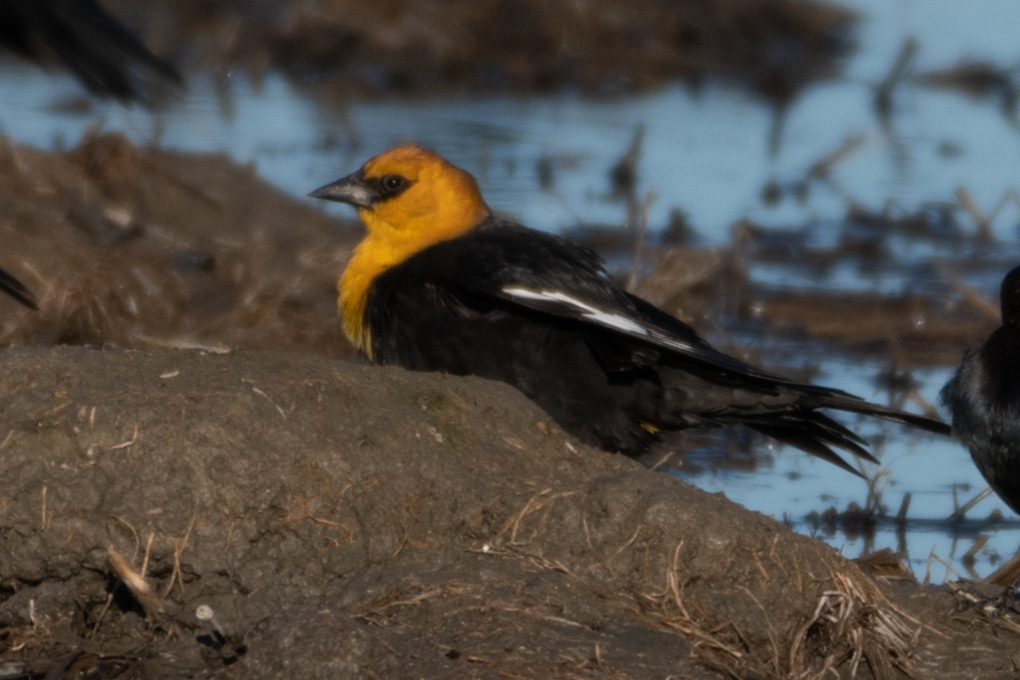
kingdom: Animalia
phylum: Chordata
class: Aves
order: Passeriformes
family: Icteridae
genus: Xanthocephalus
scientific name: Xanthocephalus xanthocephalus
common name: Yellow-headed blackbird
